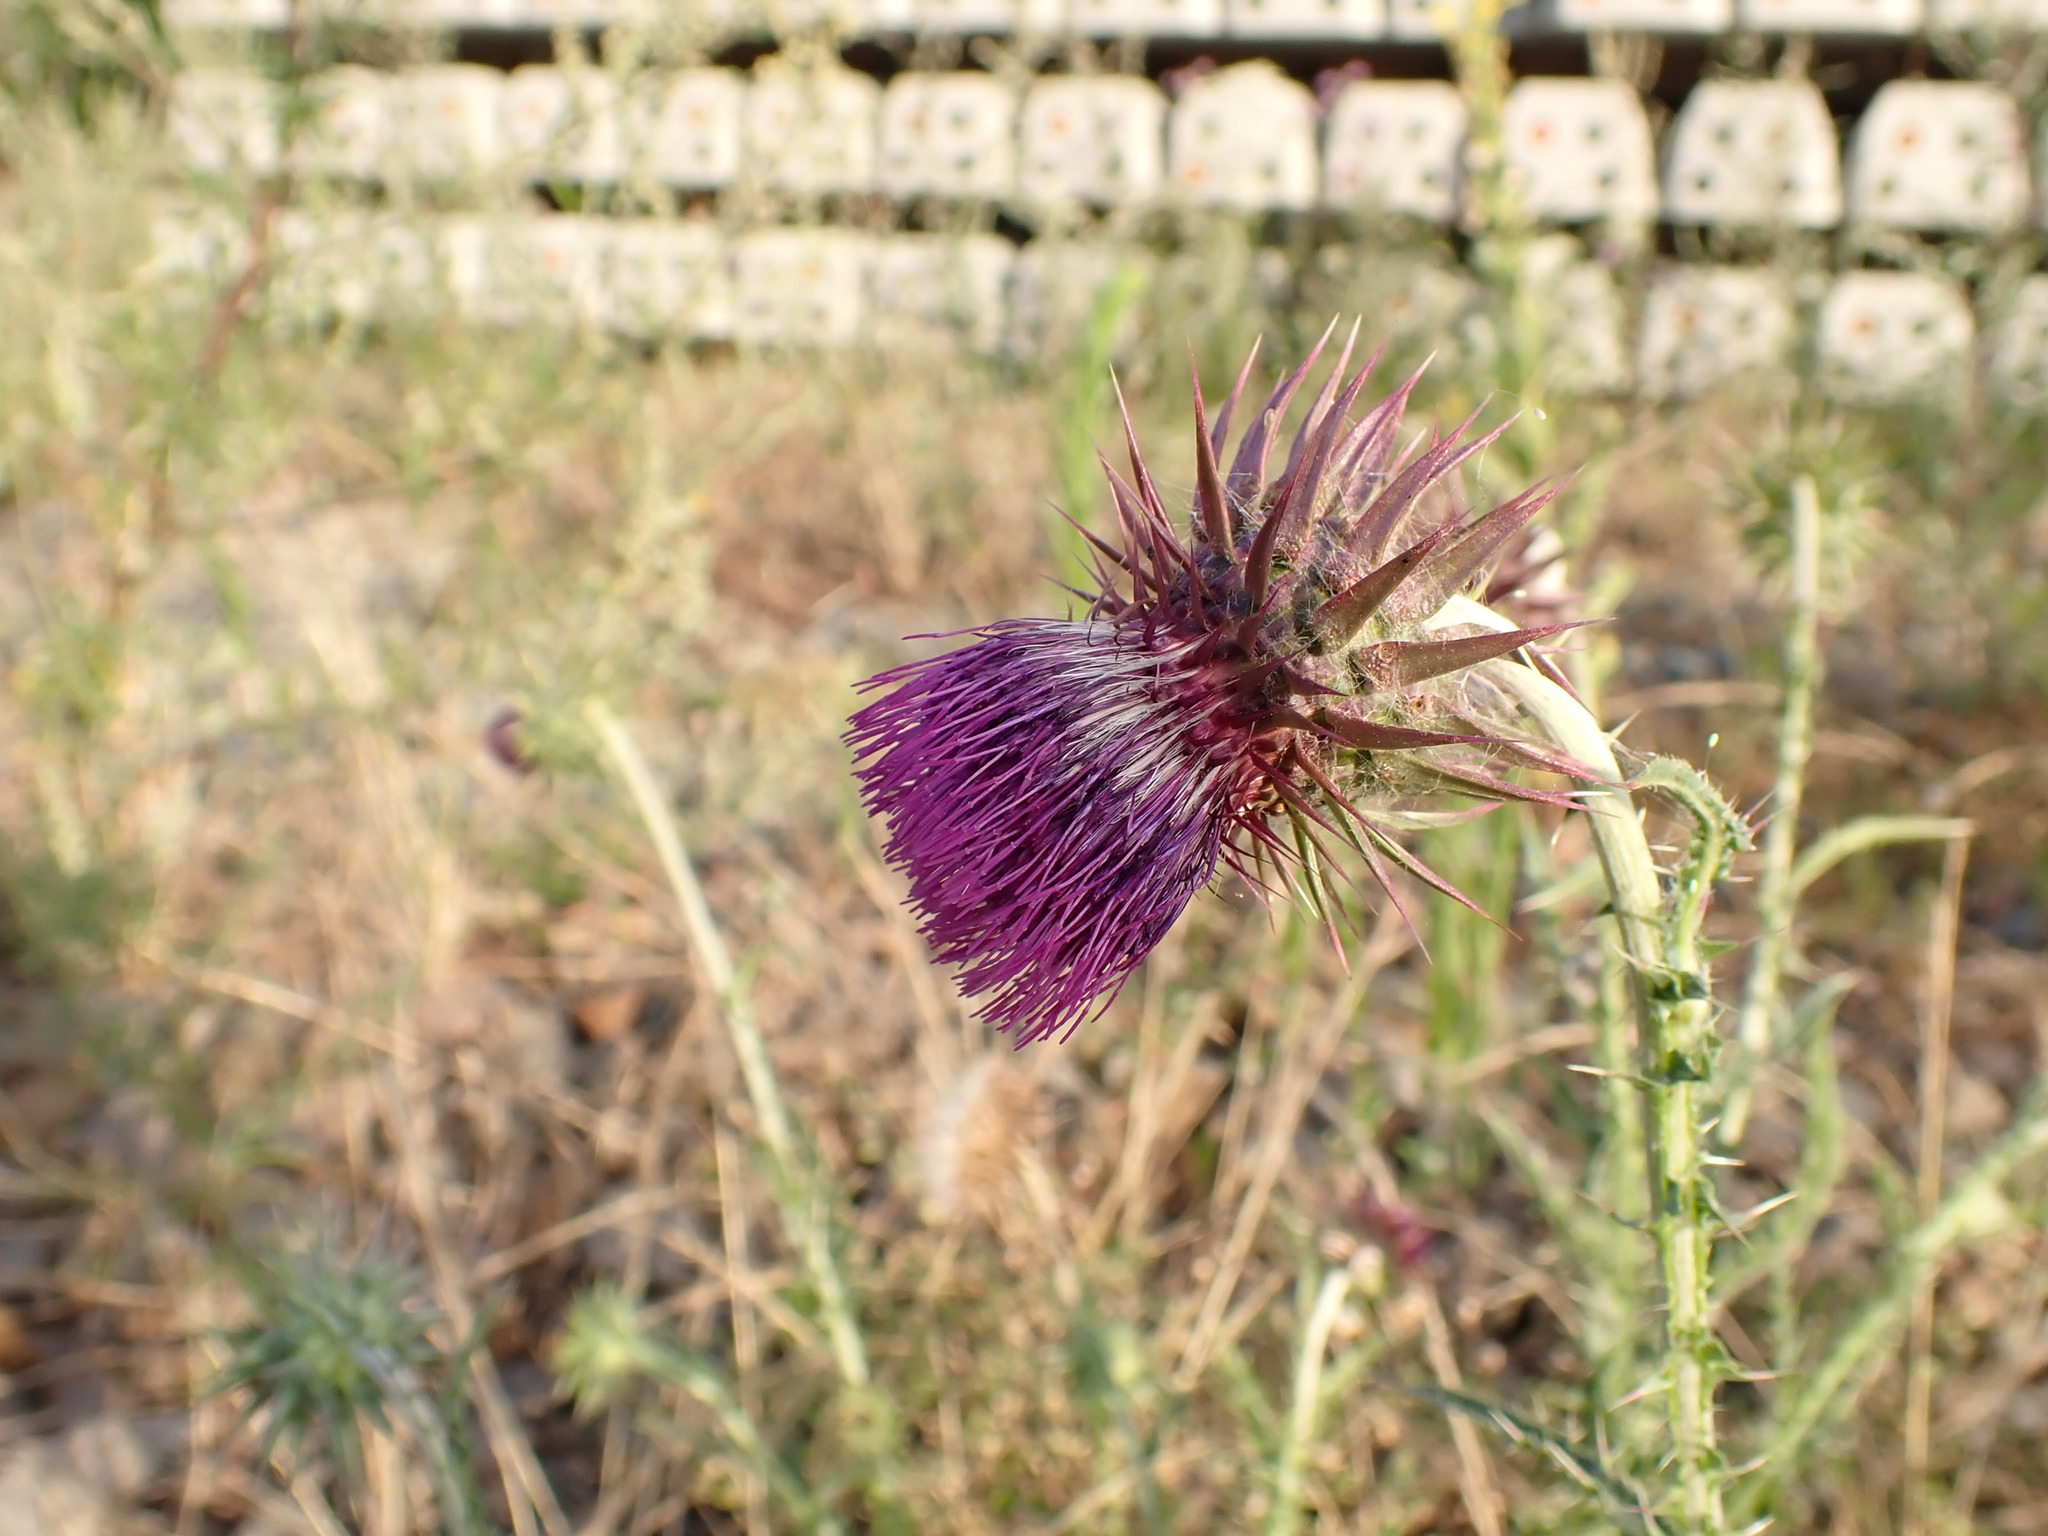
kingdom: Plantae
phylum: Tracheophyta
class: Magnoliopsida
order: Asterales
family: Asteraceae
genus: Carduus
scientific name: Carduus nutans
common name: Musk thistle
